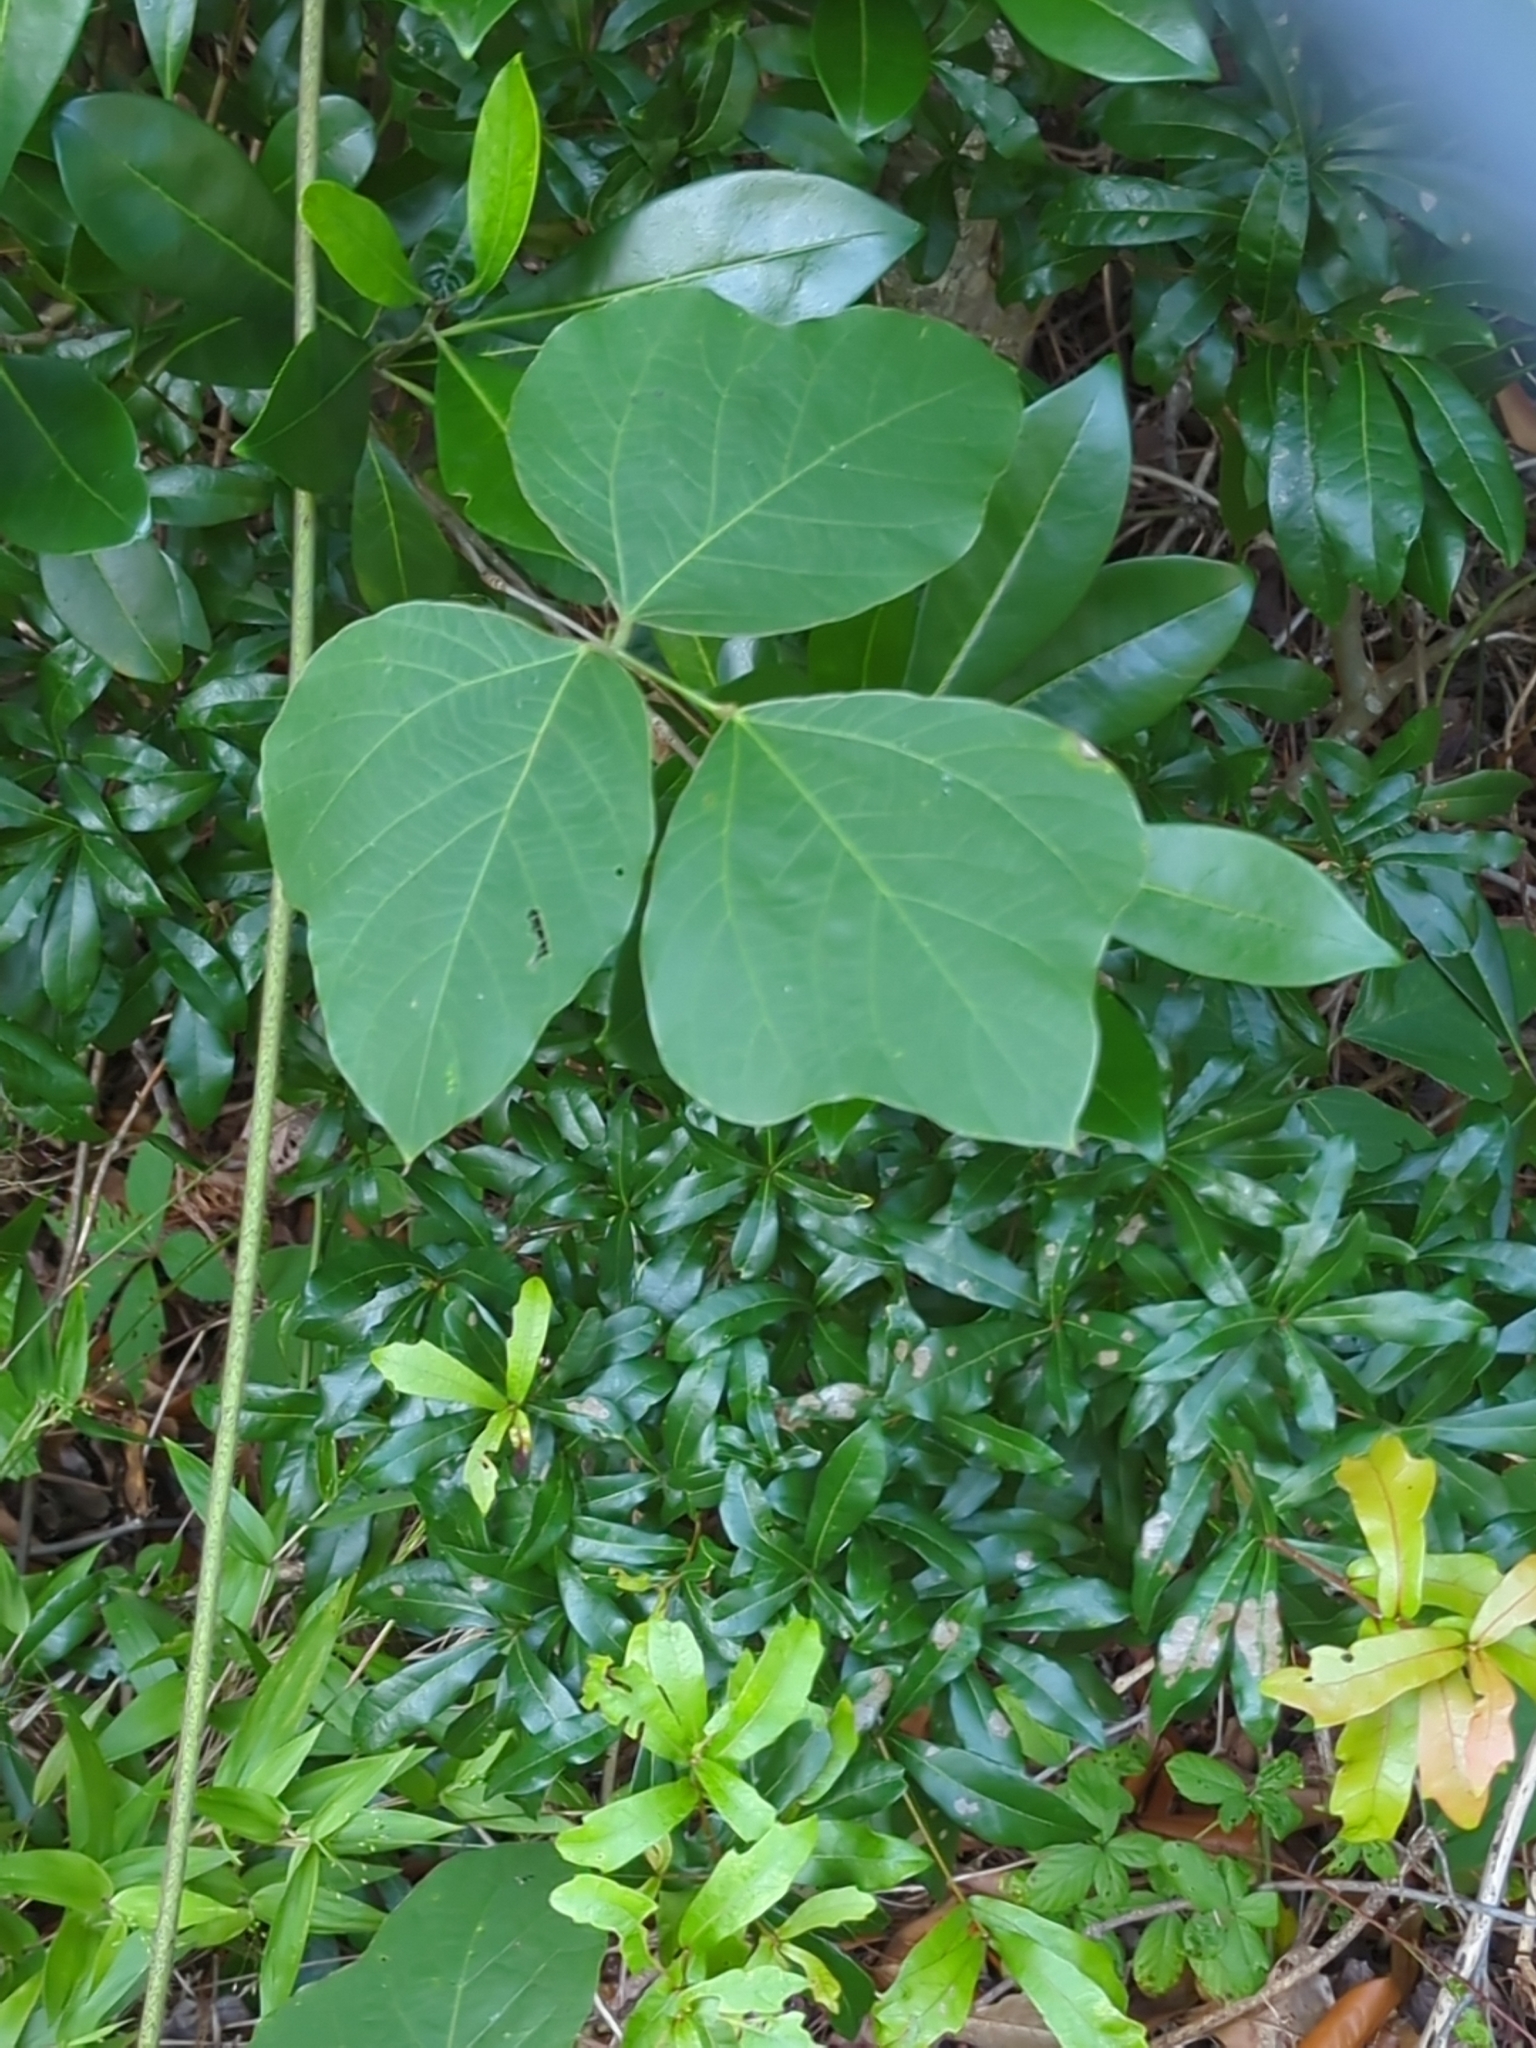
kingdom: Plantae
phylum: Tracheophyta
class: Magnoliopsida
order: Fabales
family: Fabaceae
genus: Pueraria
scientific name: Pueraria montana
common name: Kudzu
